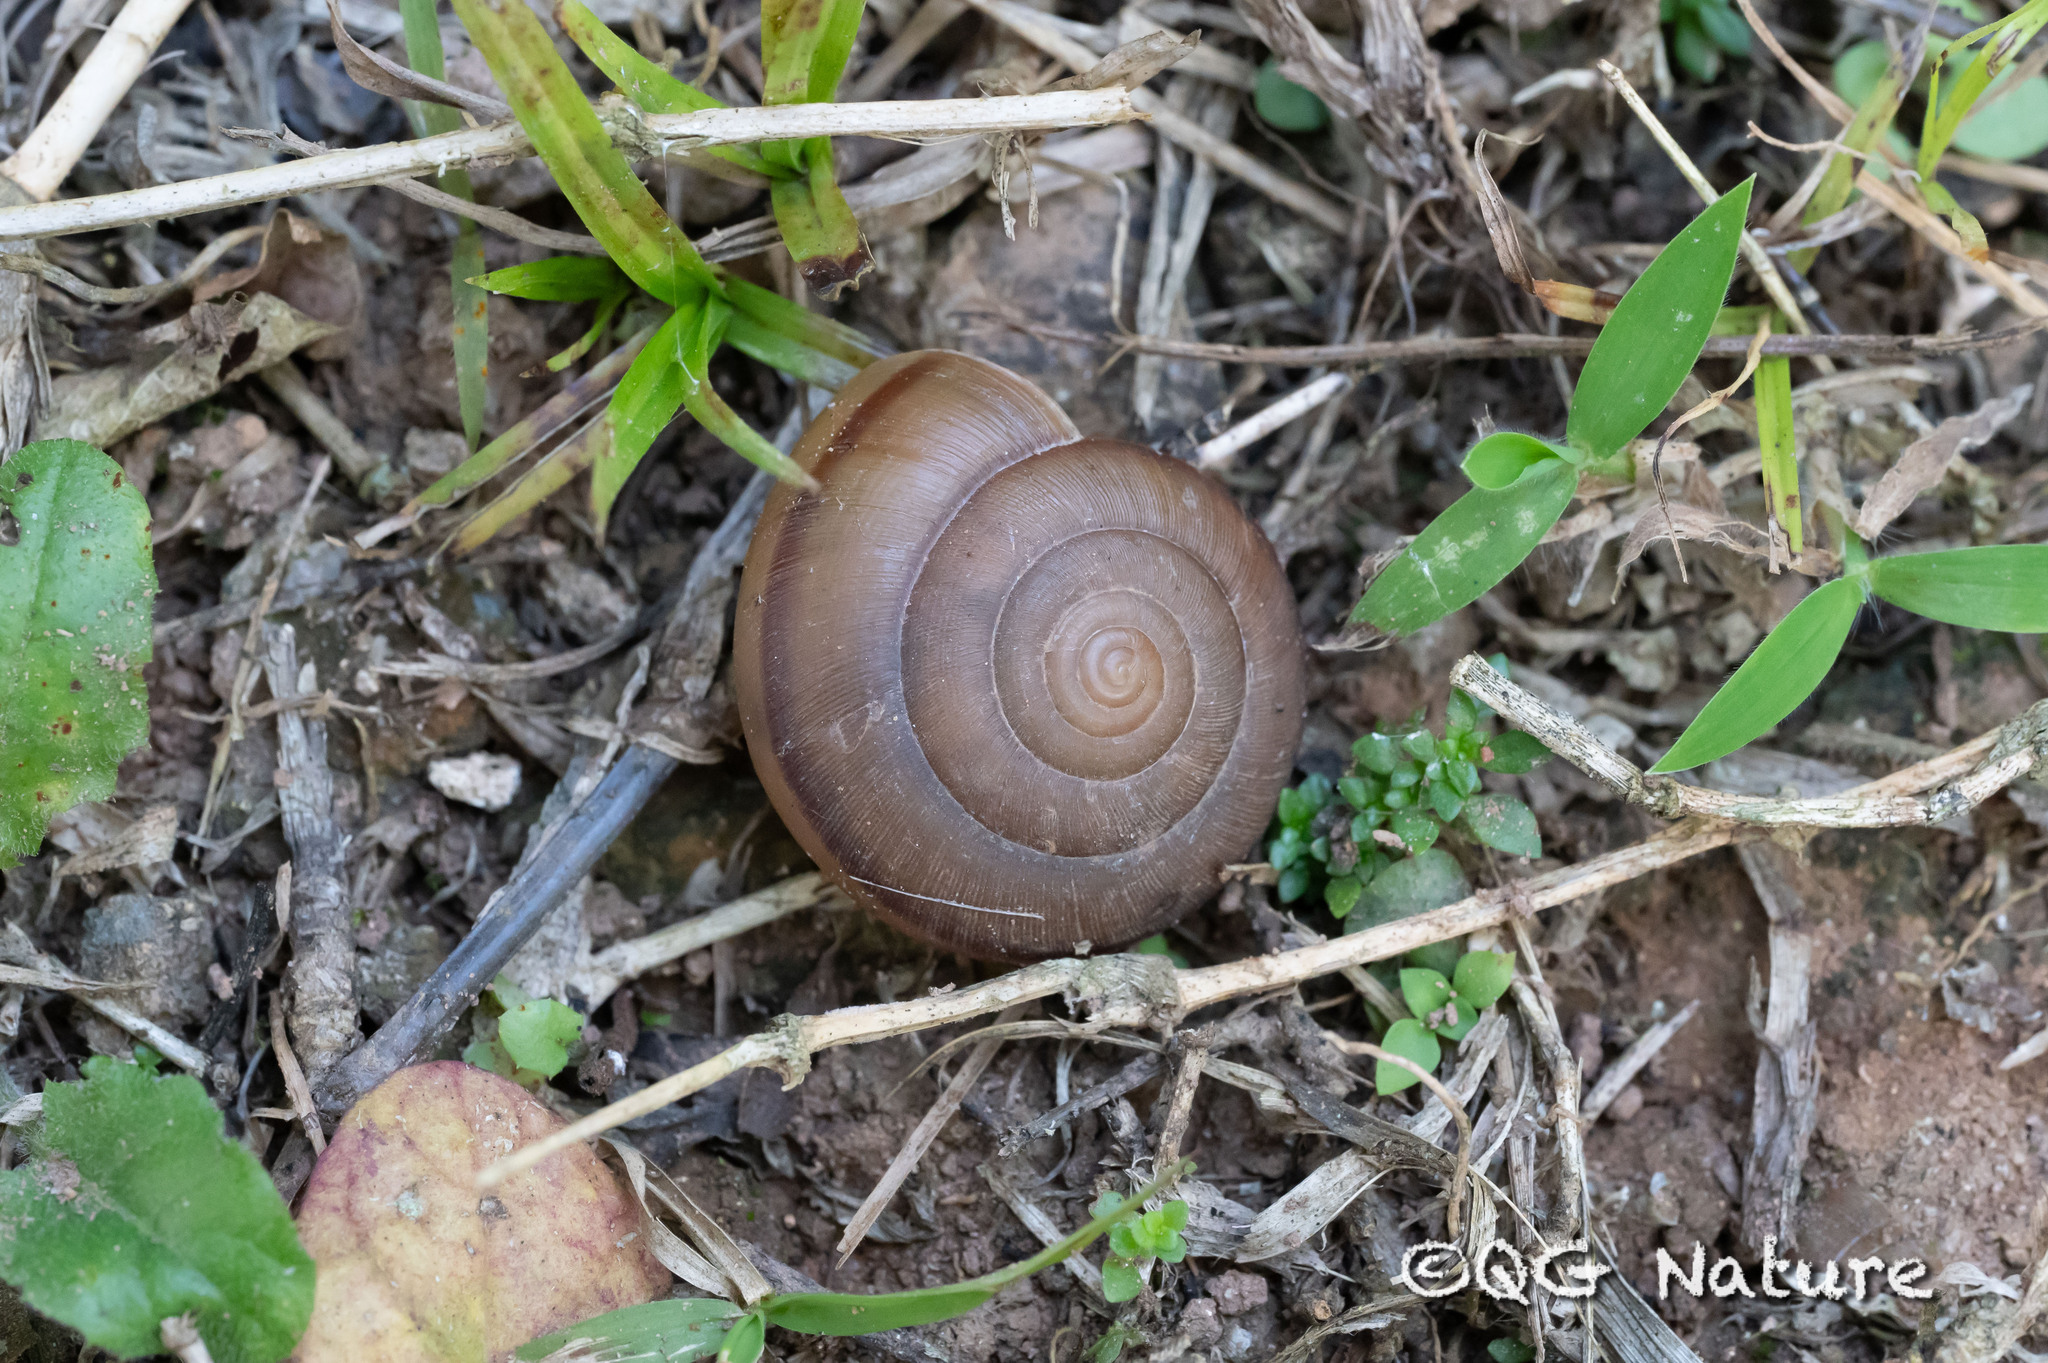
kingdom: Animalia
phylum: Mollusca
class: Gastropoda
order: Stylommatophora
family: Ariophantidae
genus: Sarika
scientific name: Sarika siamensis
